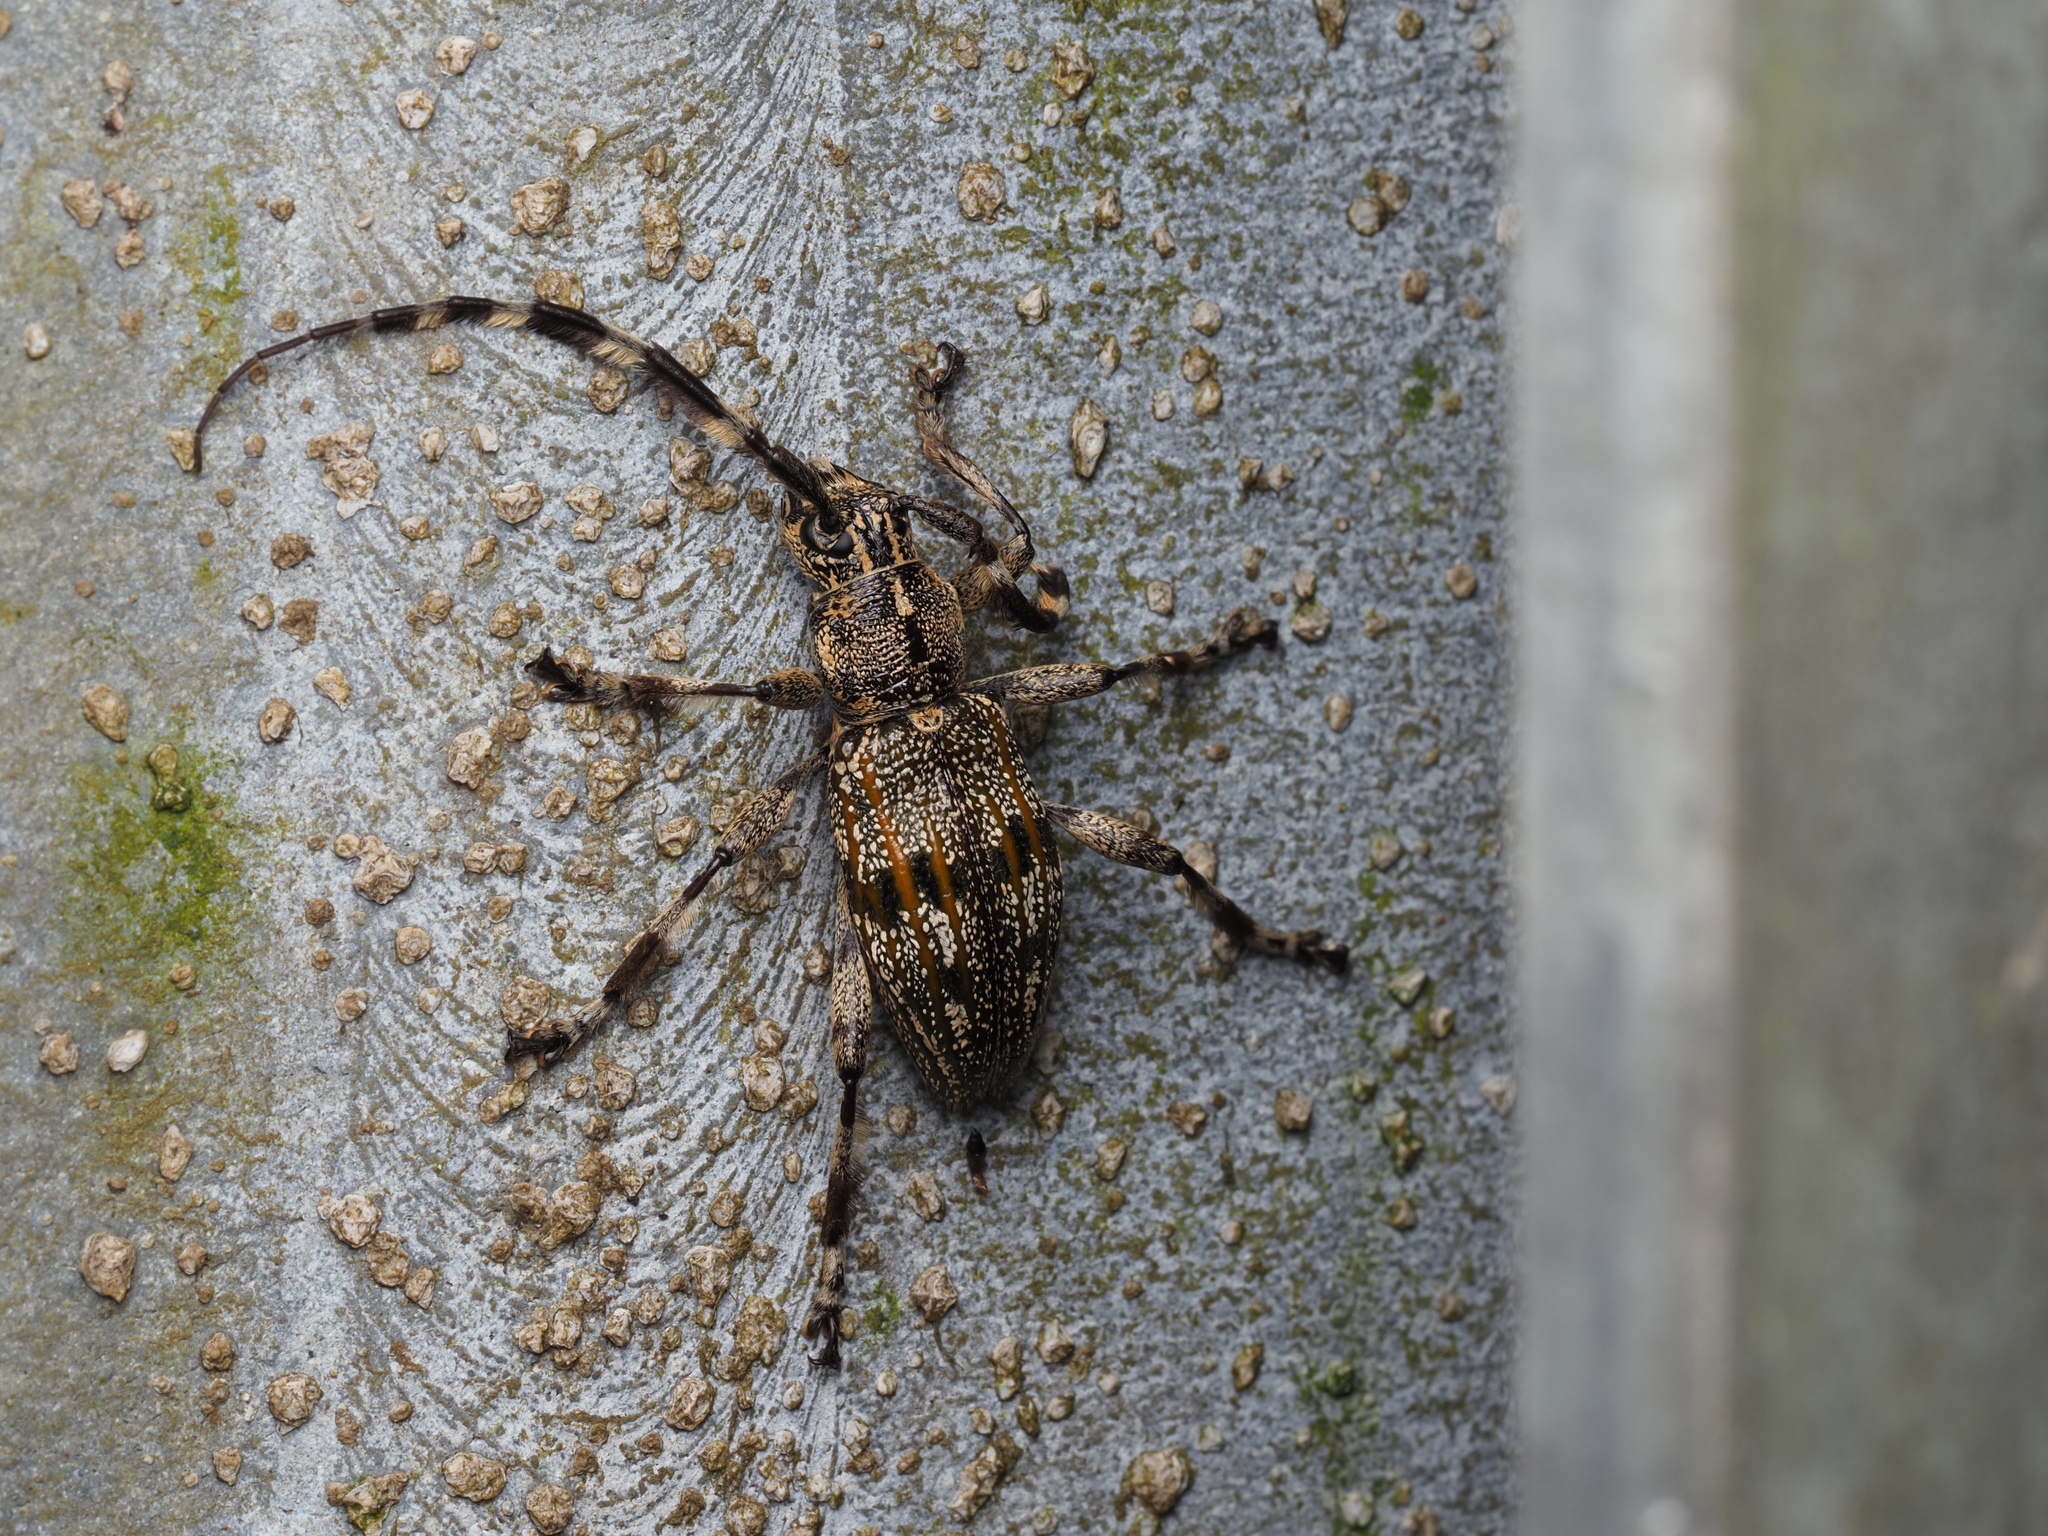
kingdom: Animalia
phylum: Arthropoda
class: Insecta
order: Coleoptera
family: Cerambycidae
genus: Hexatricha
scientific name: Hexatricha pulverulenta
